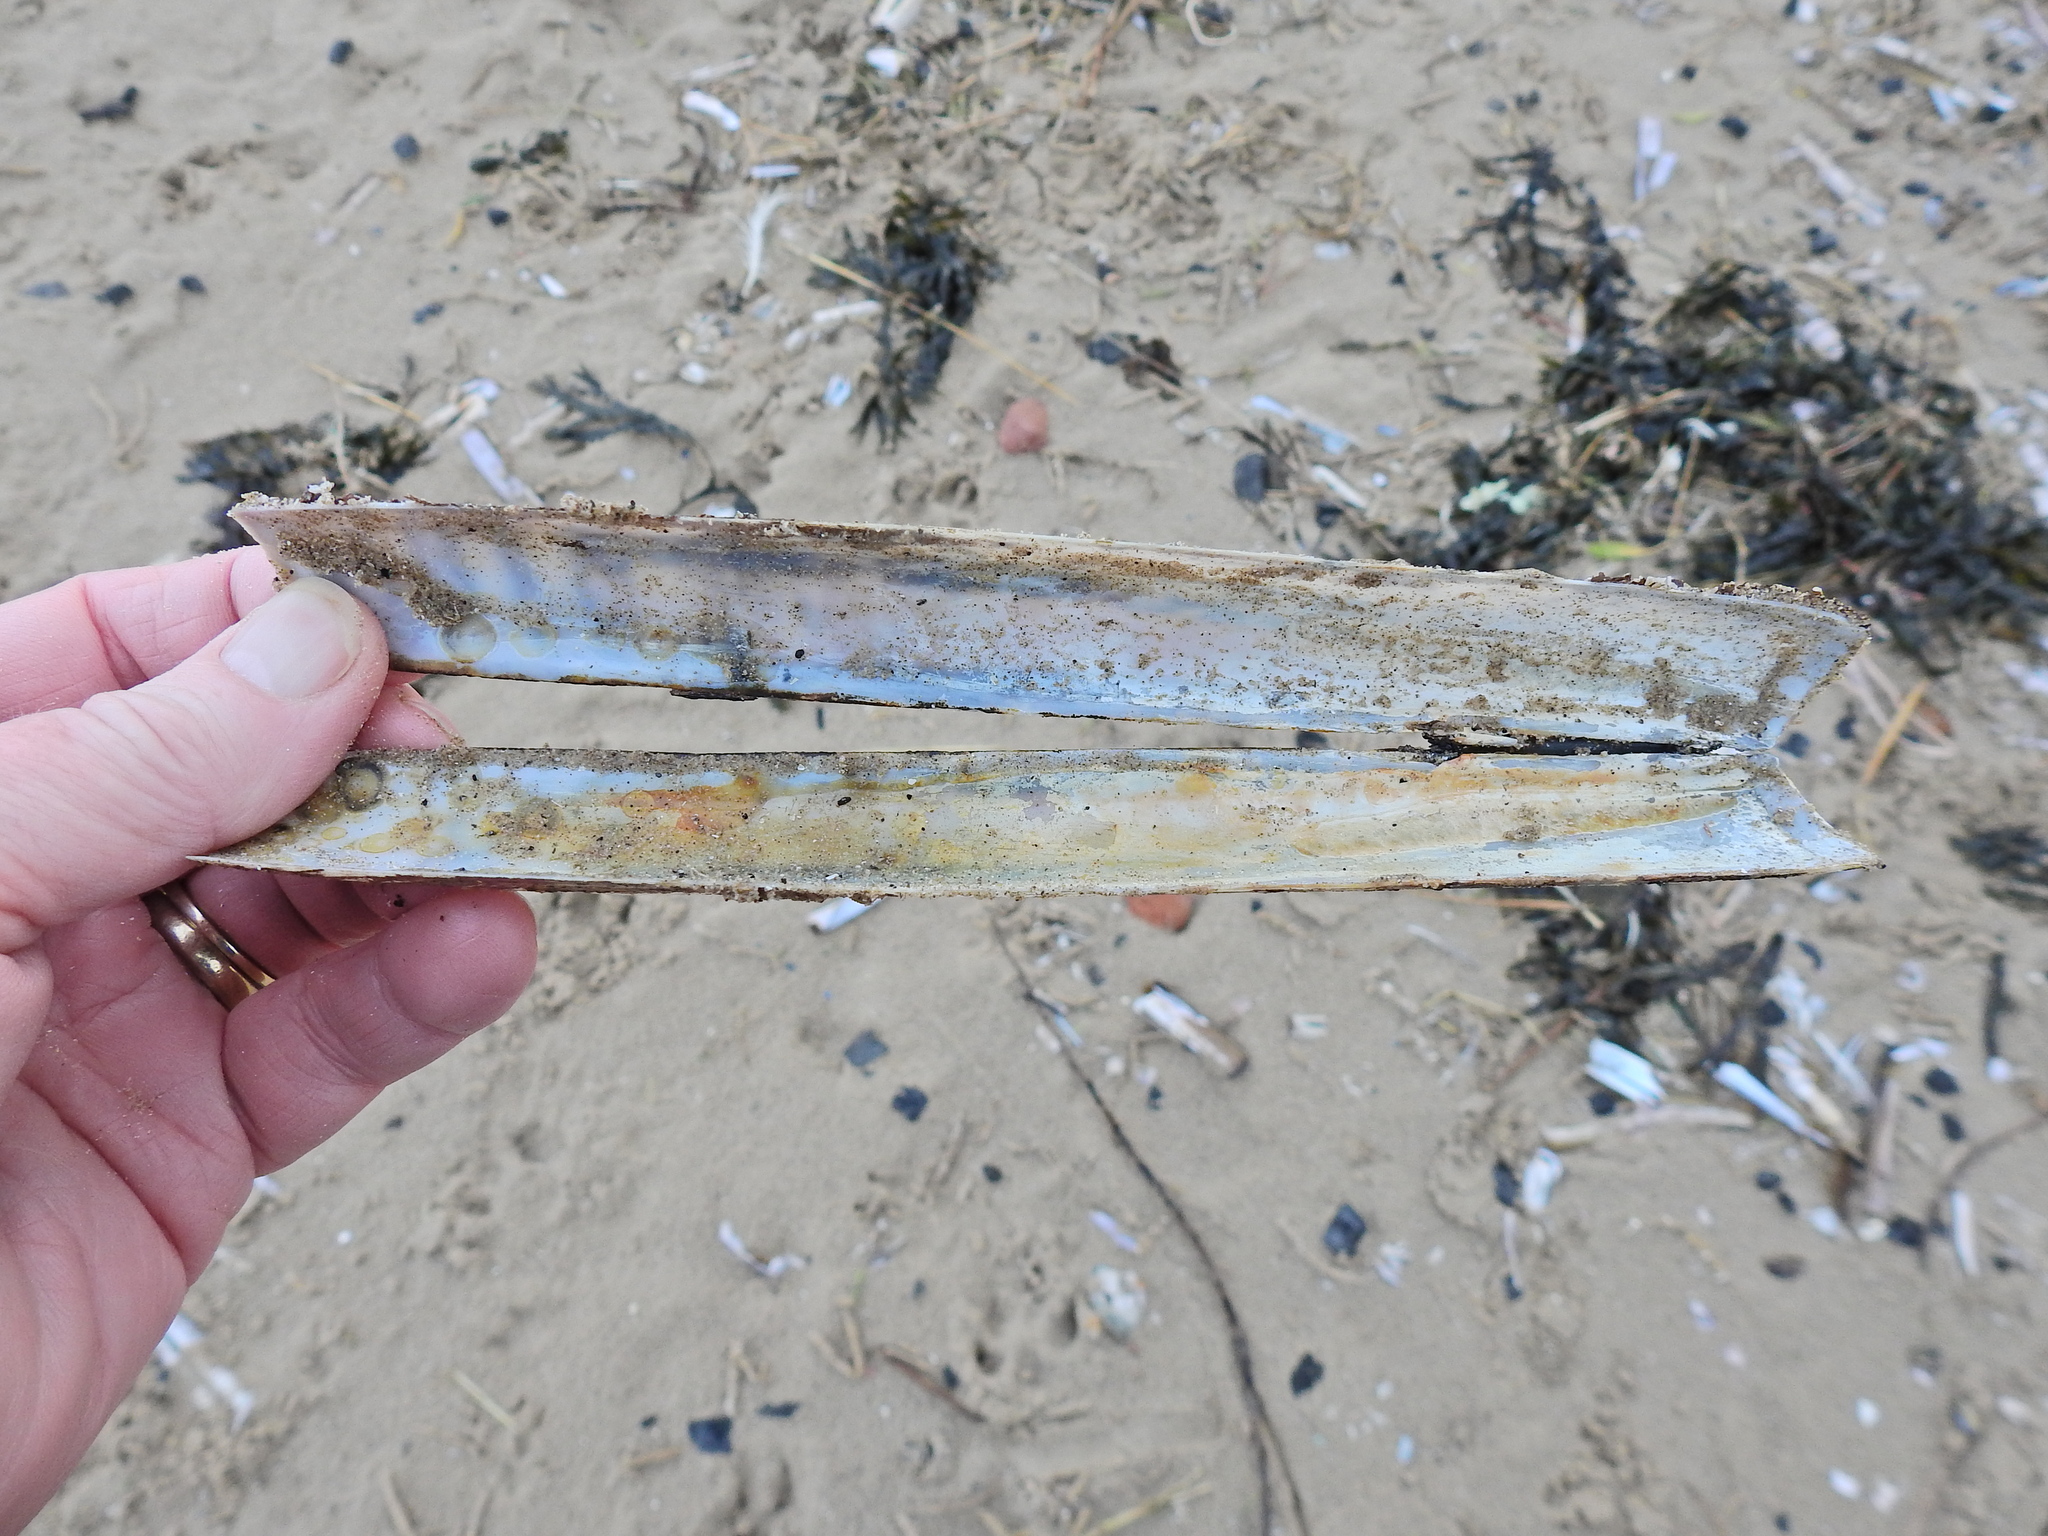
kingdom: Animalia
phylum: Mollusca
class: Bivalvia
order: Adapedonta
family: Pharidae
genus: Ensis
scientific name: Ensis siliqua
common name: Pod razor shell
